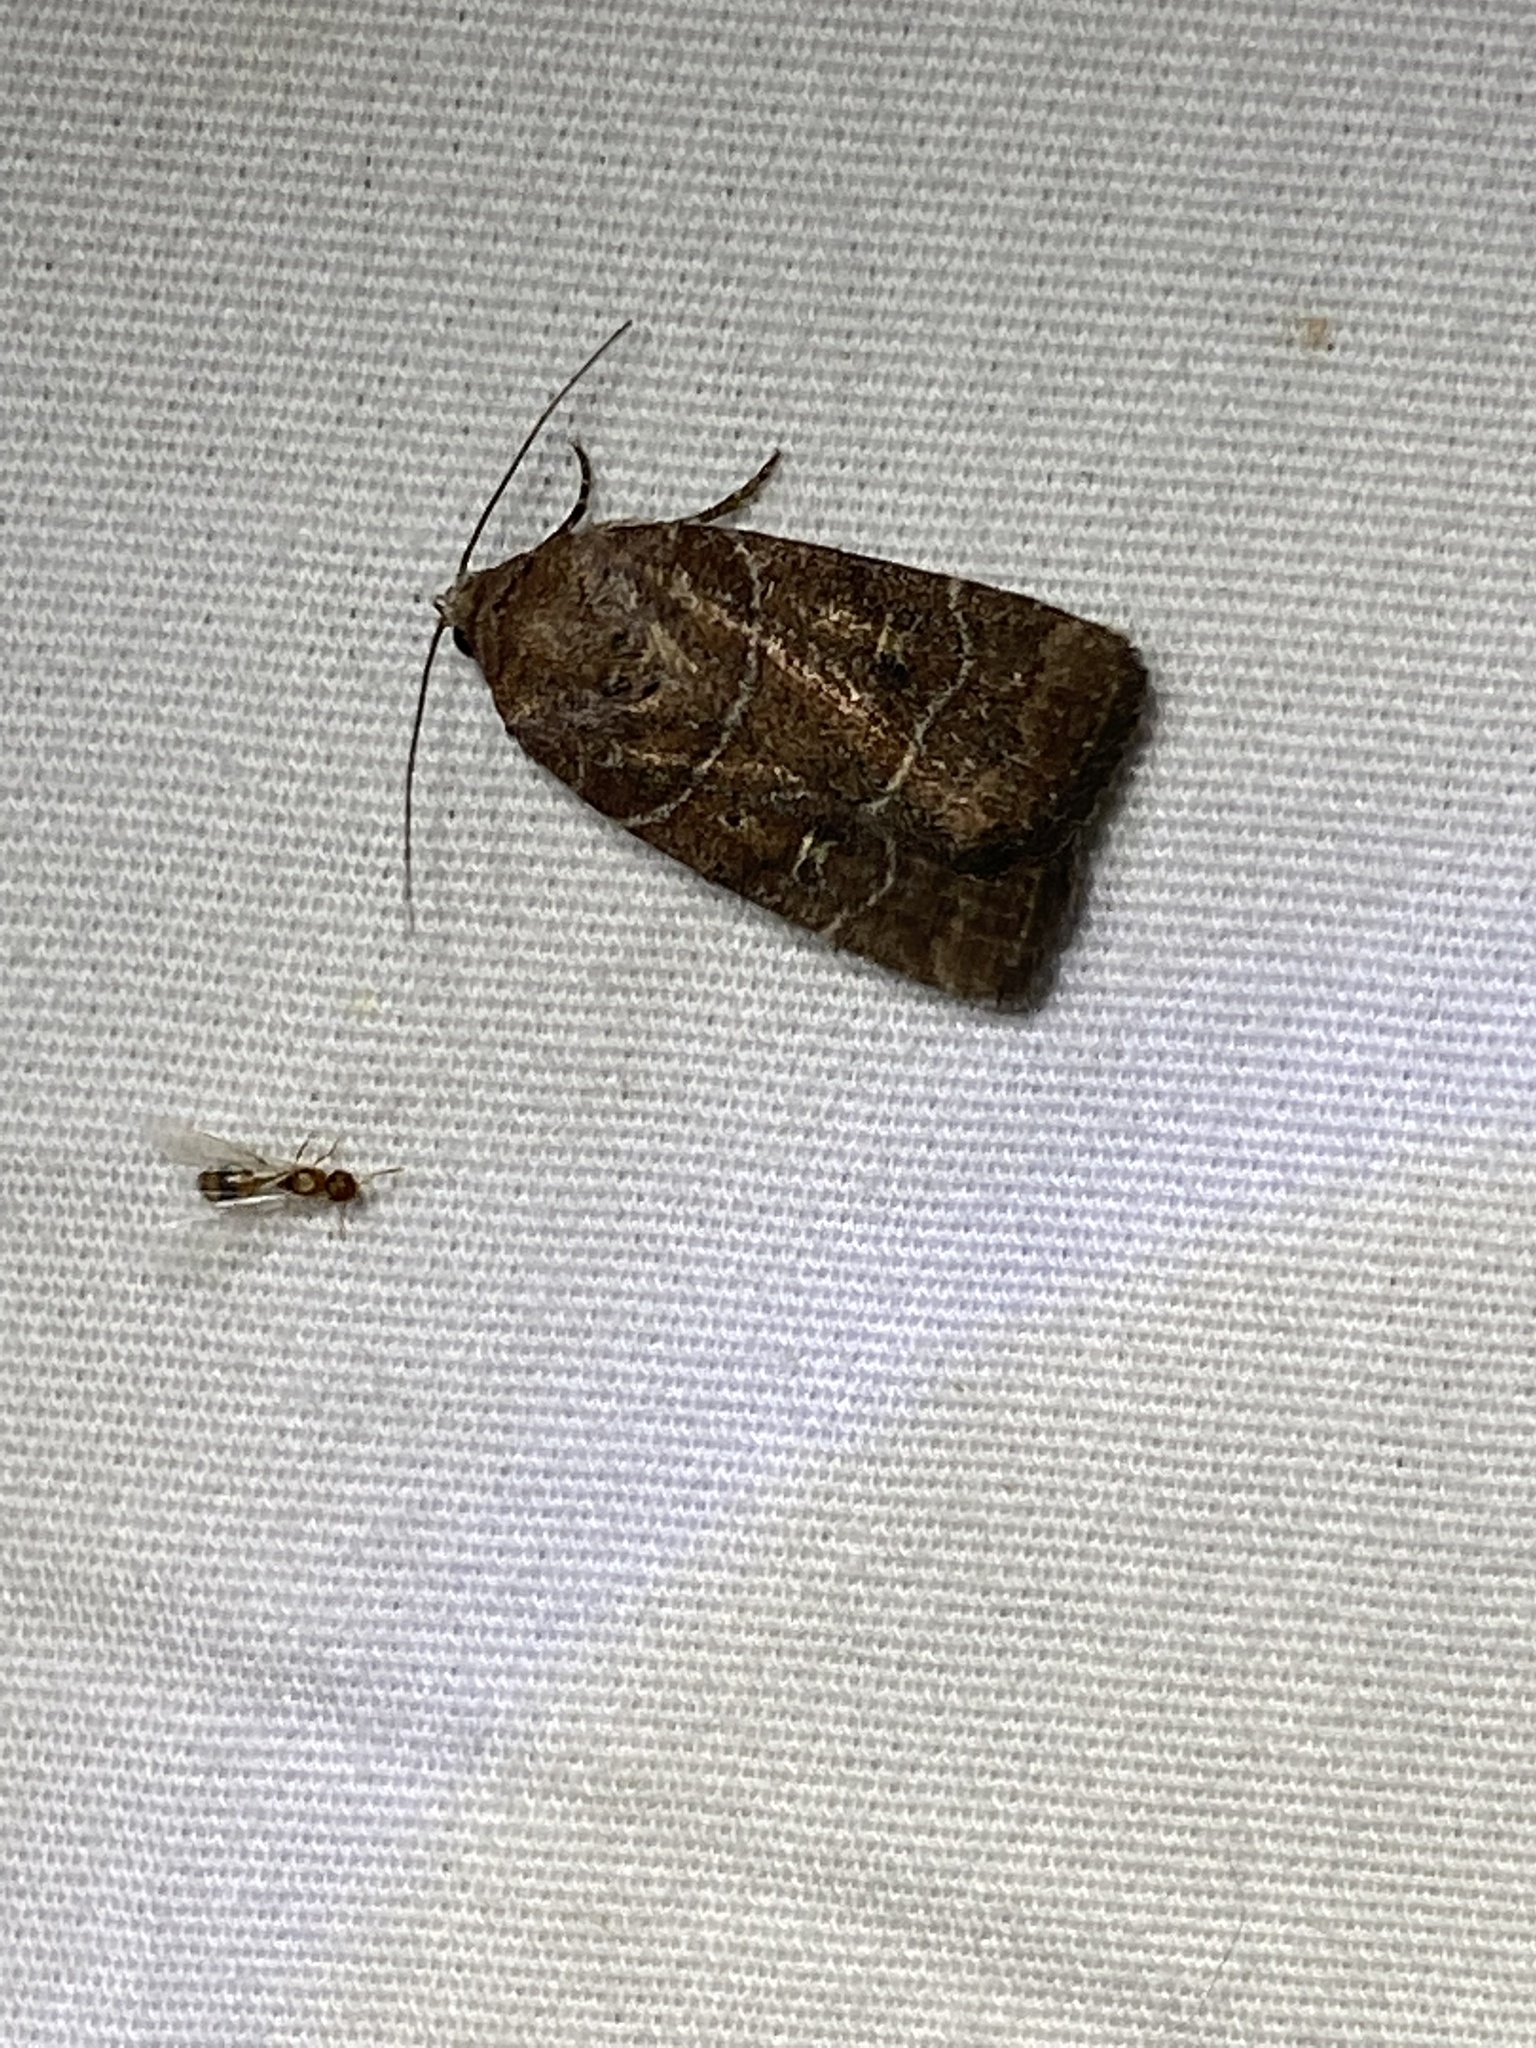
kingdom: Animalia
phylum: Arthropoda
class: Insecta
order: Lepidoptera
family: Noctuidae
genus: Elaphria
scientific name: Elaphria grata
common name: Grateful midget moth
